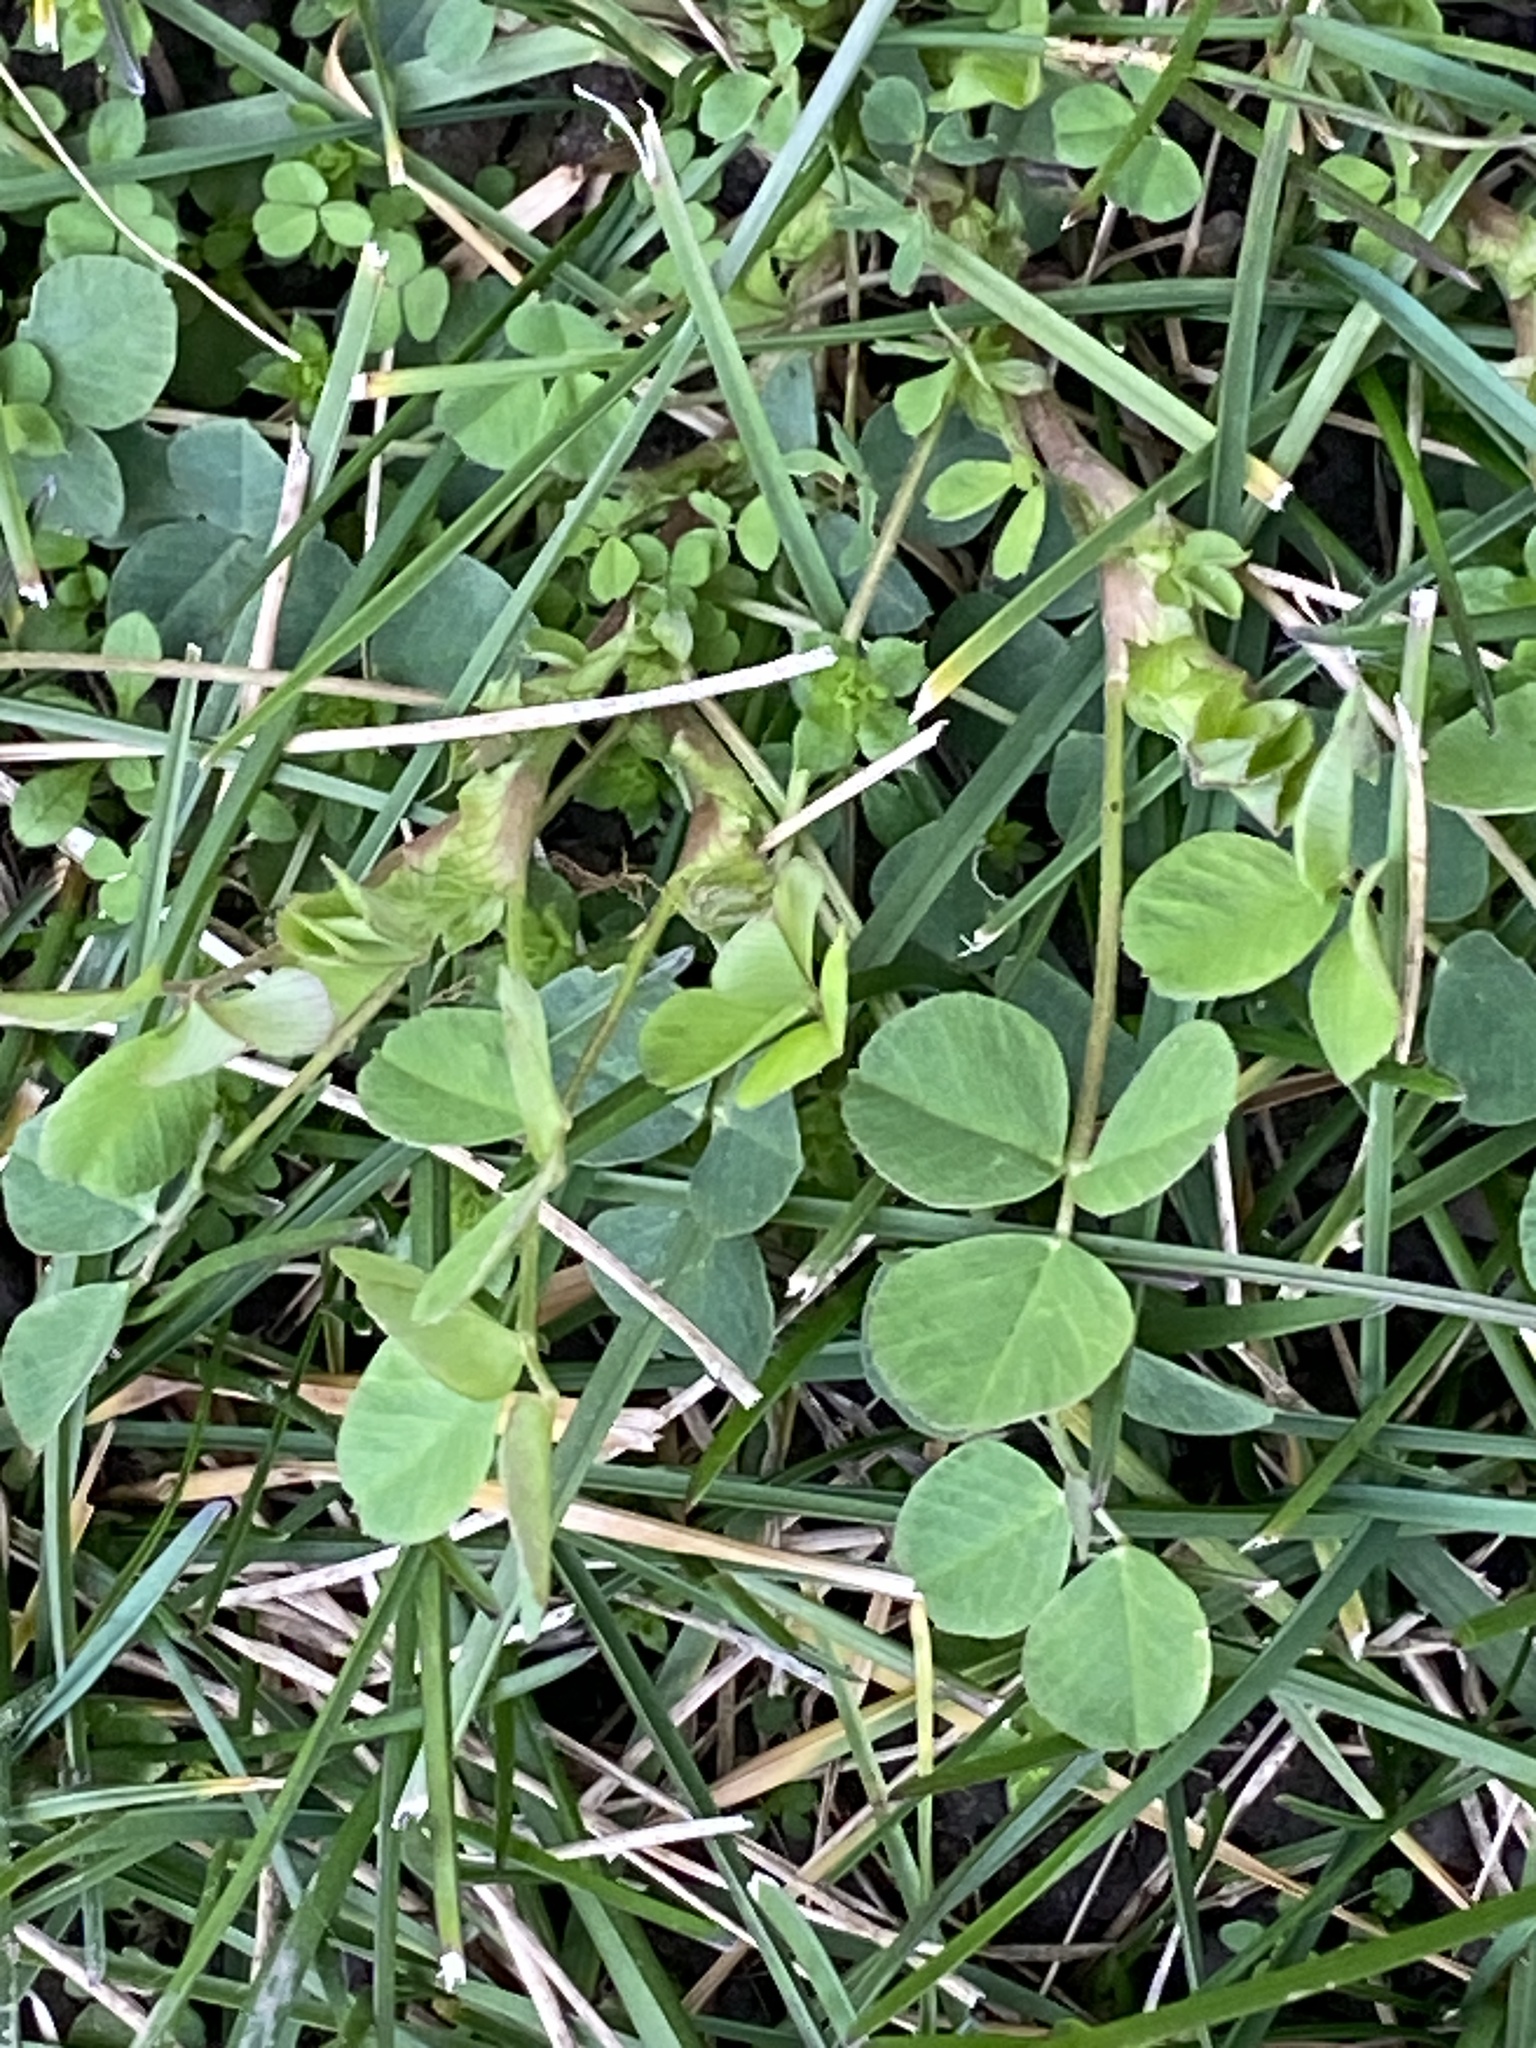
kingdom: Plantae
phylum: Tracheophyta
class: Magnoliopsida
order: Fabales
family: Fabaceae
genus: Medicago
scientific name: Medicago lupulina
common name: Black medick
